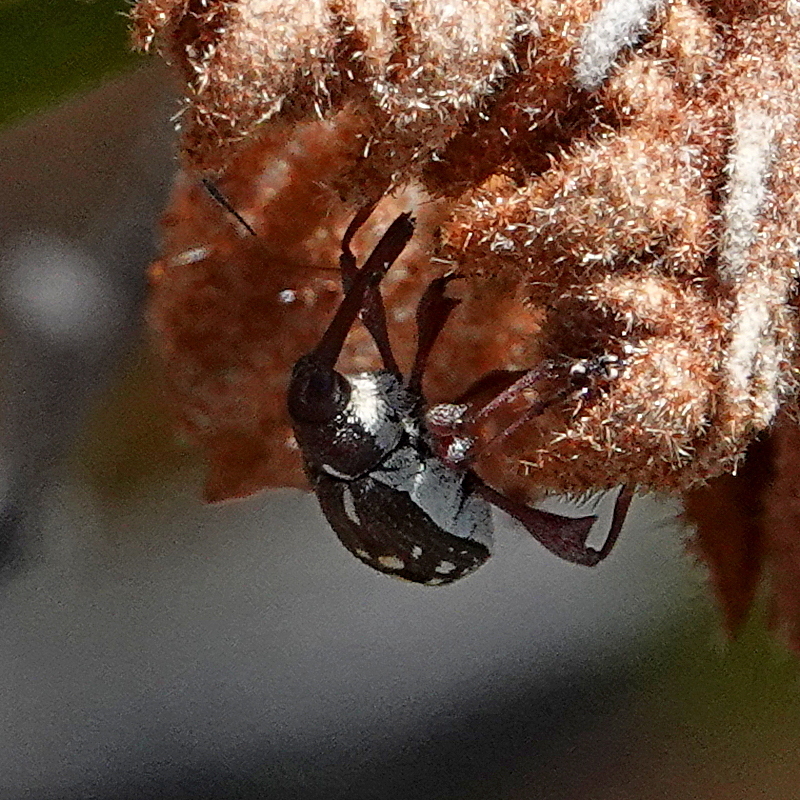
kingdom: Animalia
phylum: Arthropoda
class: Insecta
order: Coleoptera
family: Curculionidae
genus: Meriphus
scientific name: Meriphus guttatus
